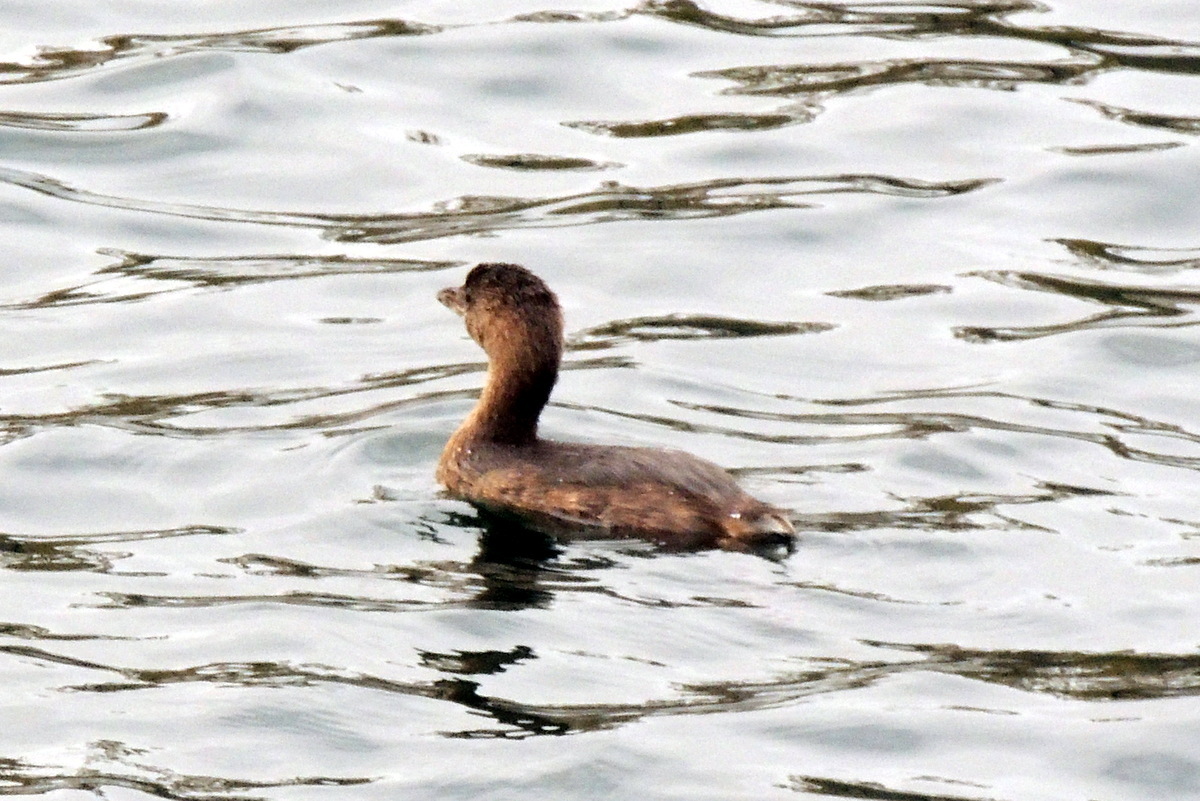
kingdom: Animalia
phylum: Chordata
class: Aves
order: Podicipediformes
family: Podicipedidae
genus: Podilymbus
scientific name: Podilymbus podiceps
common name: Pied-billed grebe
